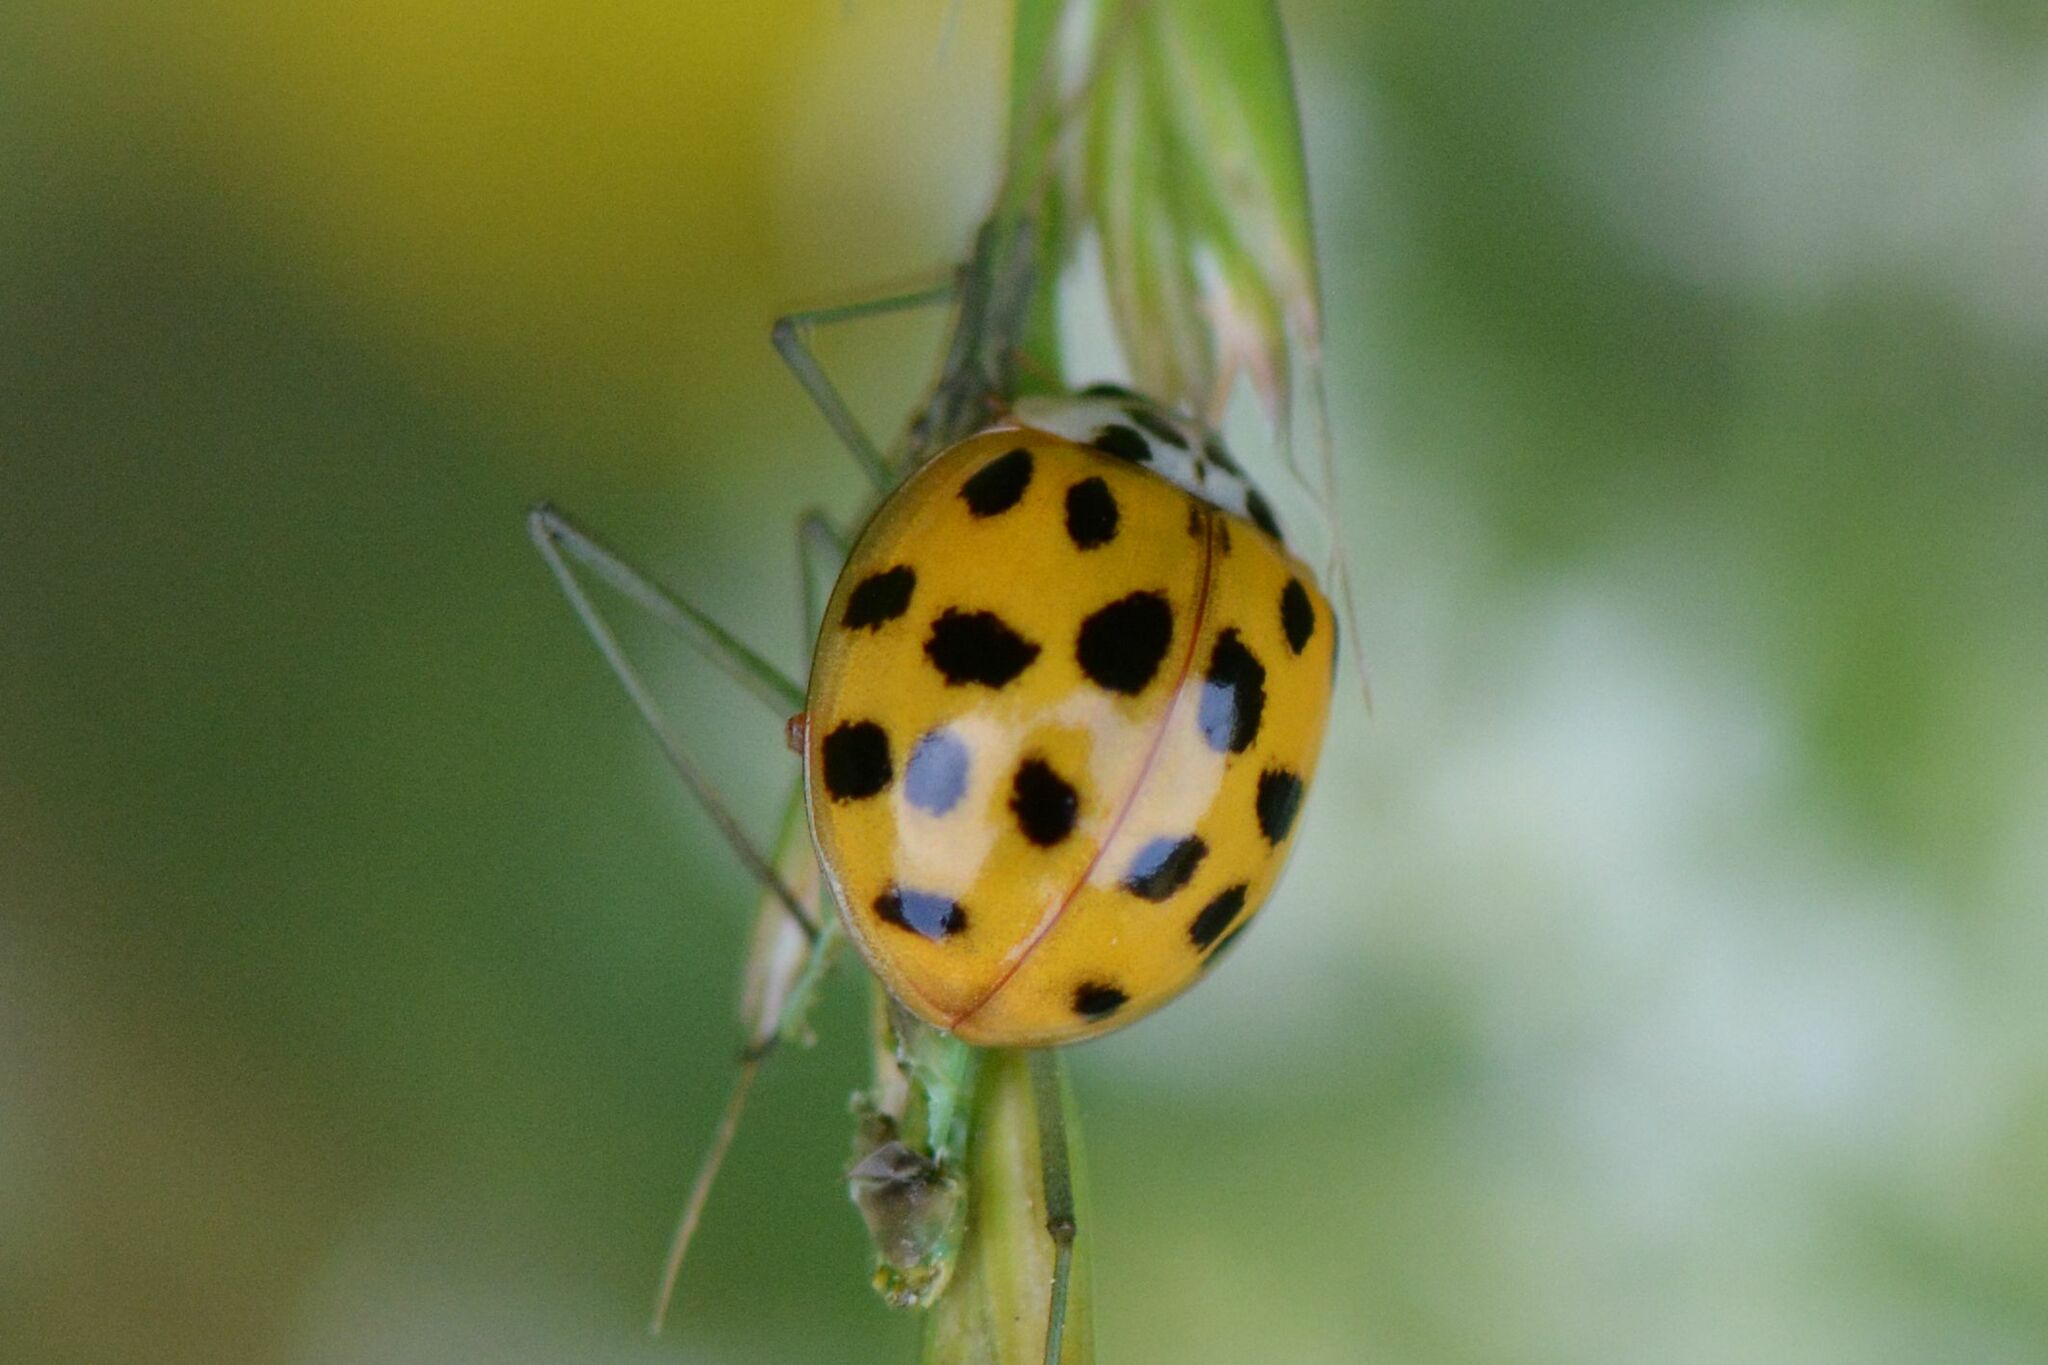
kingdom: Animalia
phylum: Arthropoda
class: Insecta
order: Coleoptera
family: Coccinellidae
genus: Harmonia
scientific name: Harmonia axyridis
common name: Harlequin ladybird
